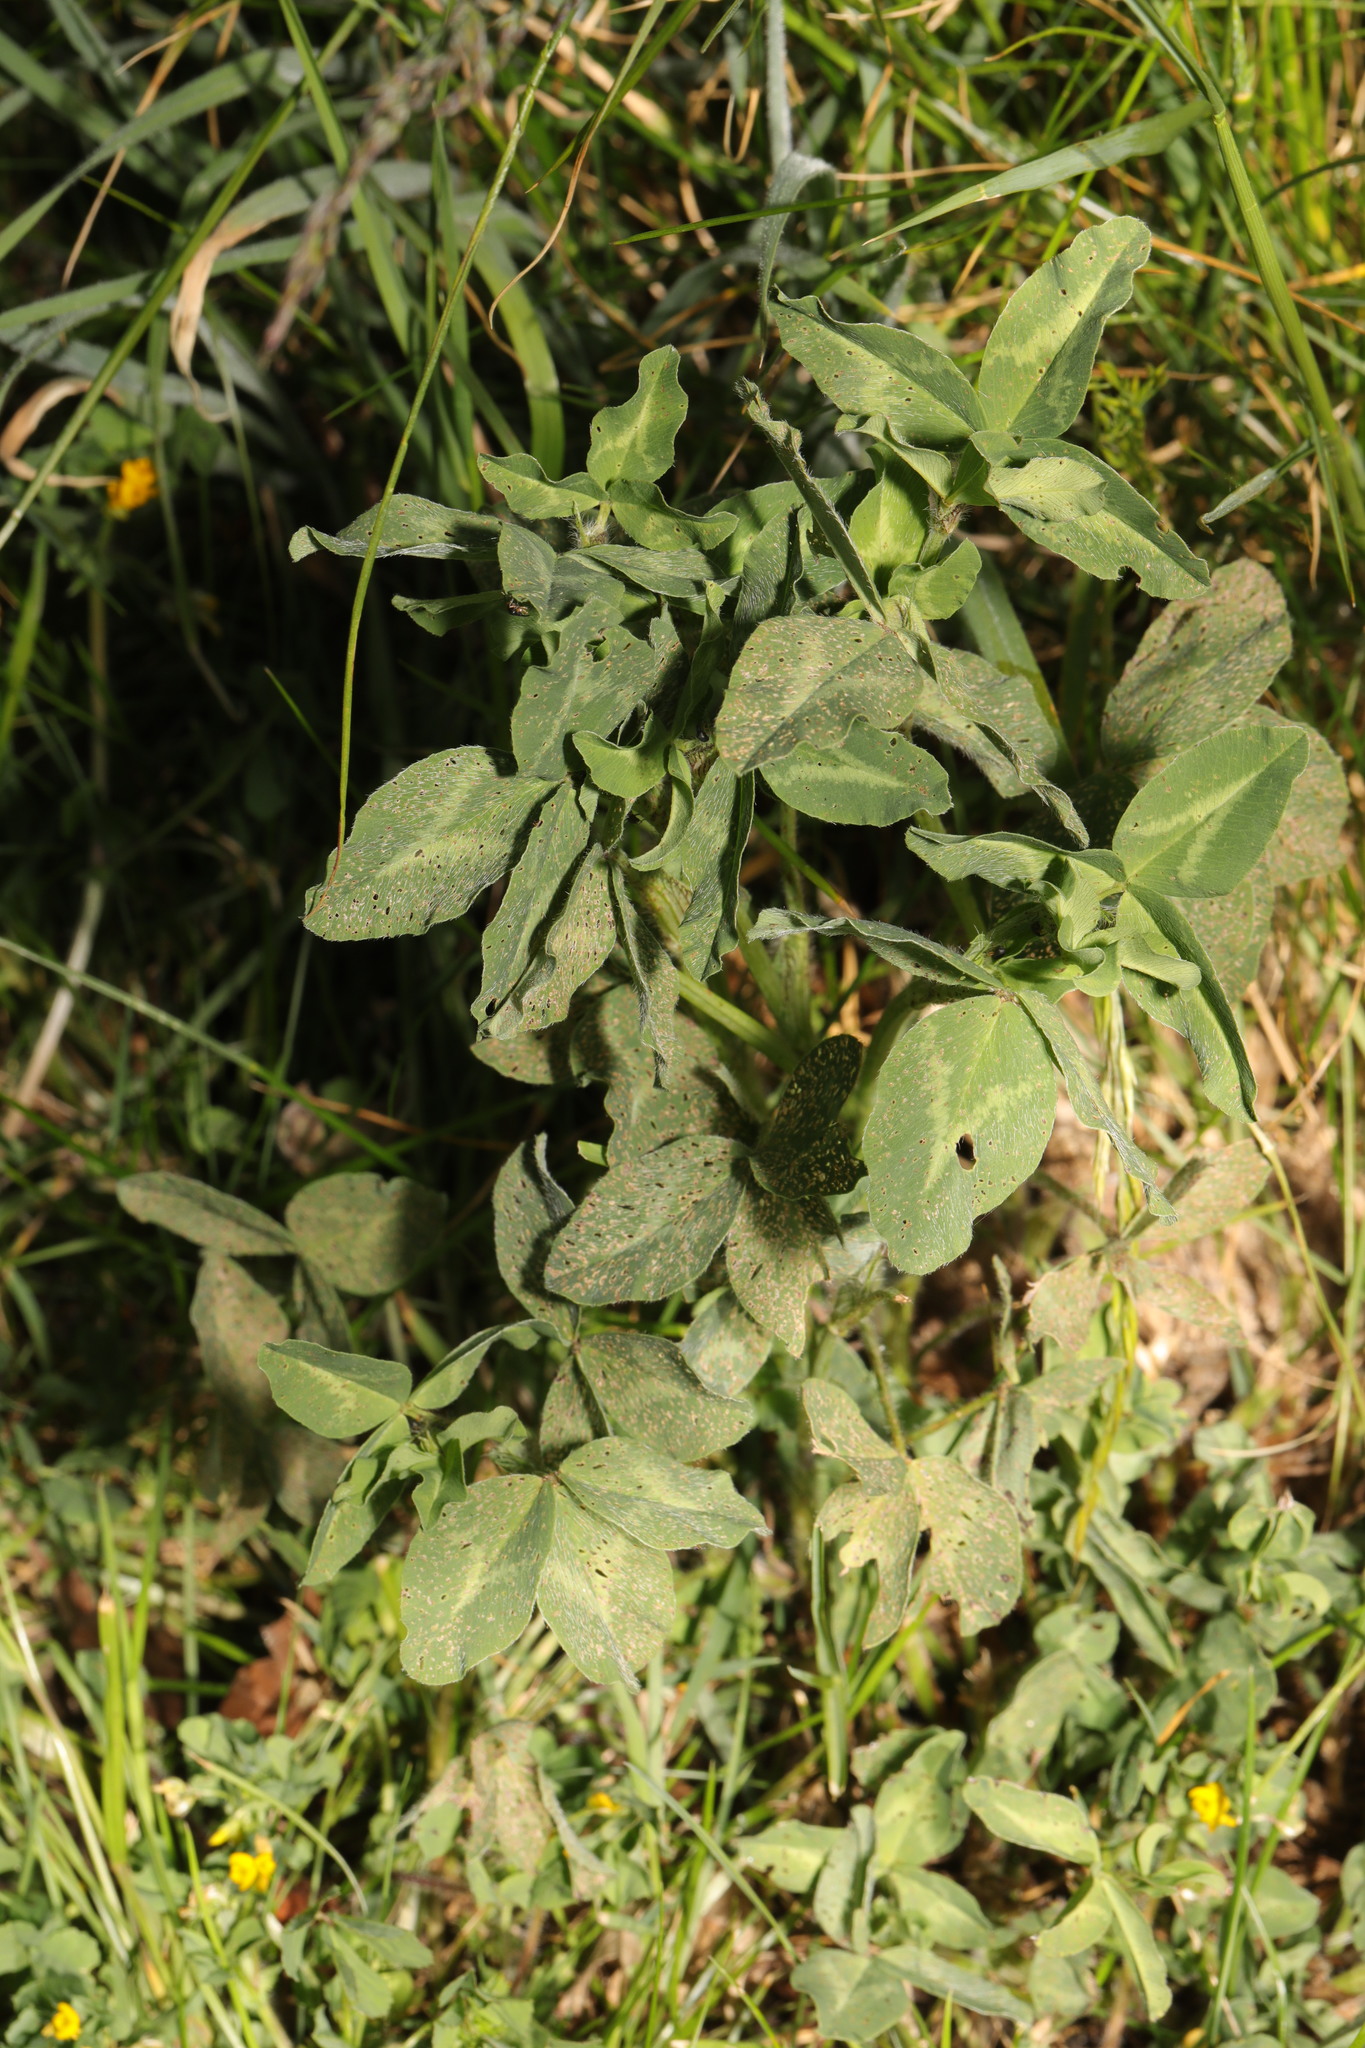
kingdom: Plantae
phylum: Tracheophyta
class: Magnoliopsida
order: Fabales
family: Fabaceae
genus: Trifolium
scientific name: Trifolium pratense
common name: Red clover
